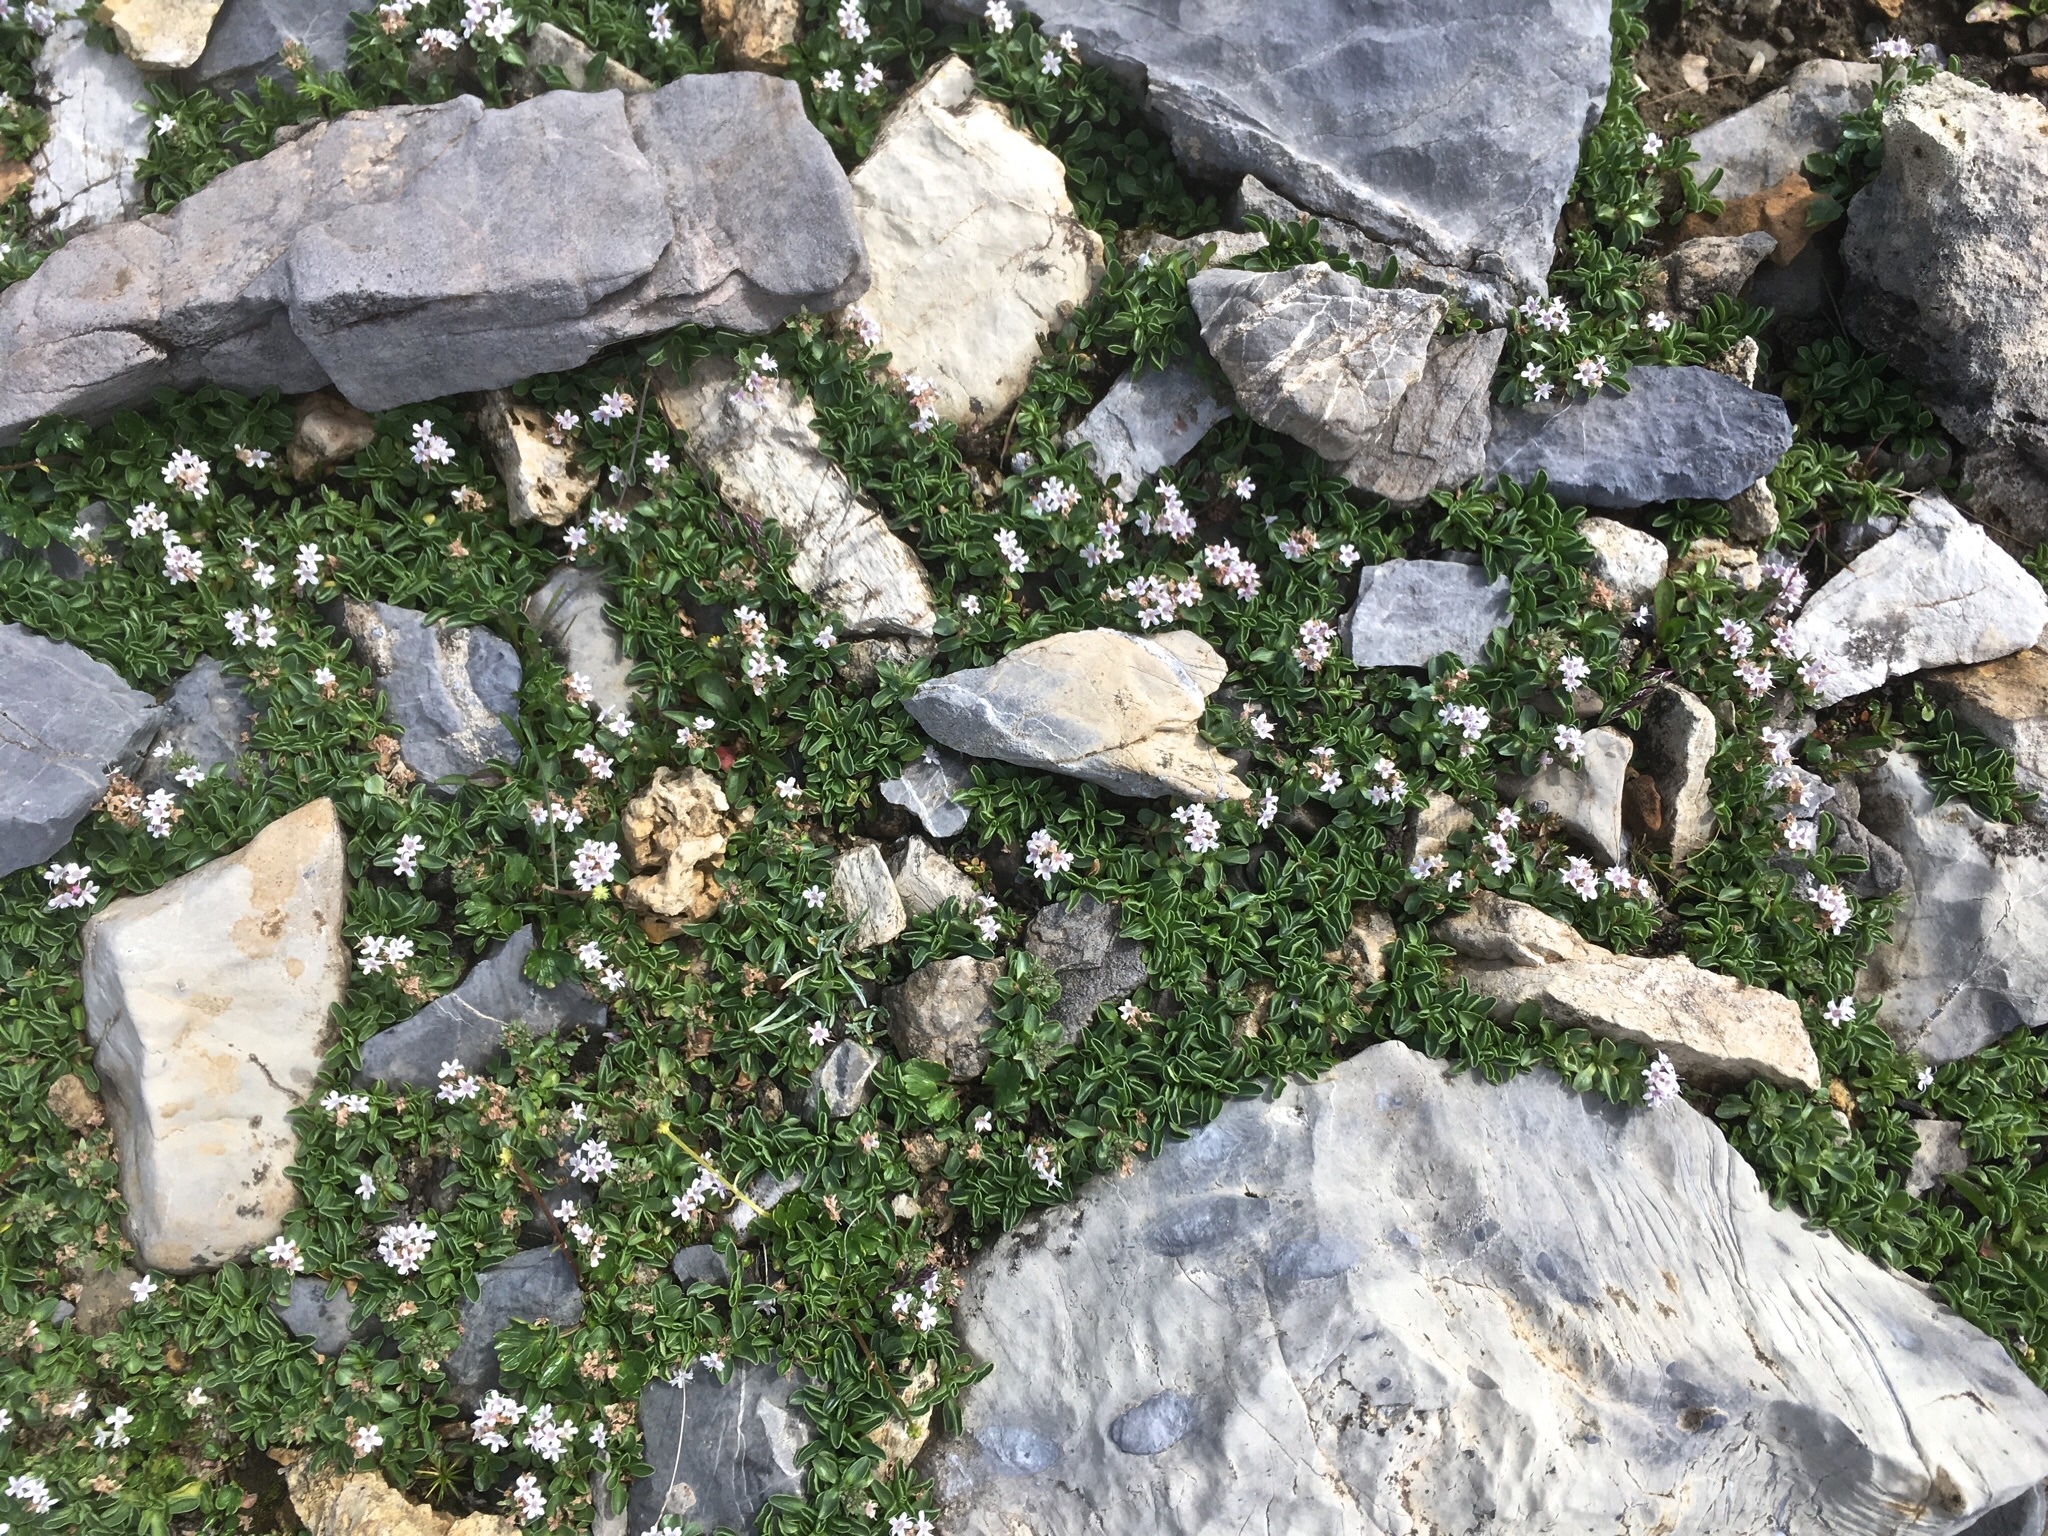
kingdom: Plantae
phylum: Tracheophyta
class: Magnoliopsida
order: Dipsacales
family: Caprifoliaceae
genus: Valeriana
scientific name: Valeriana supina
